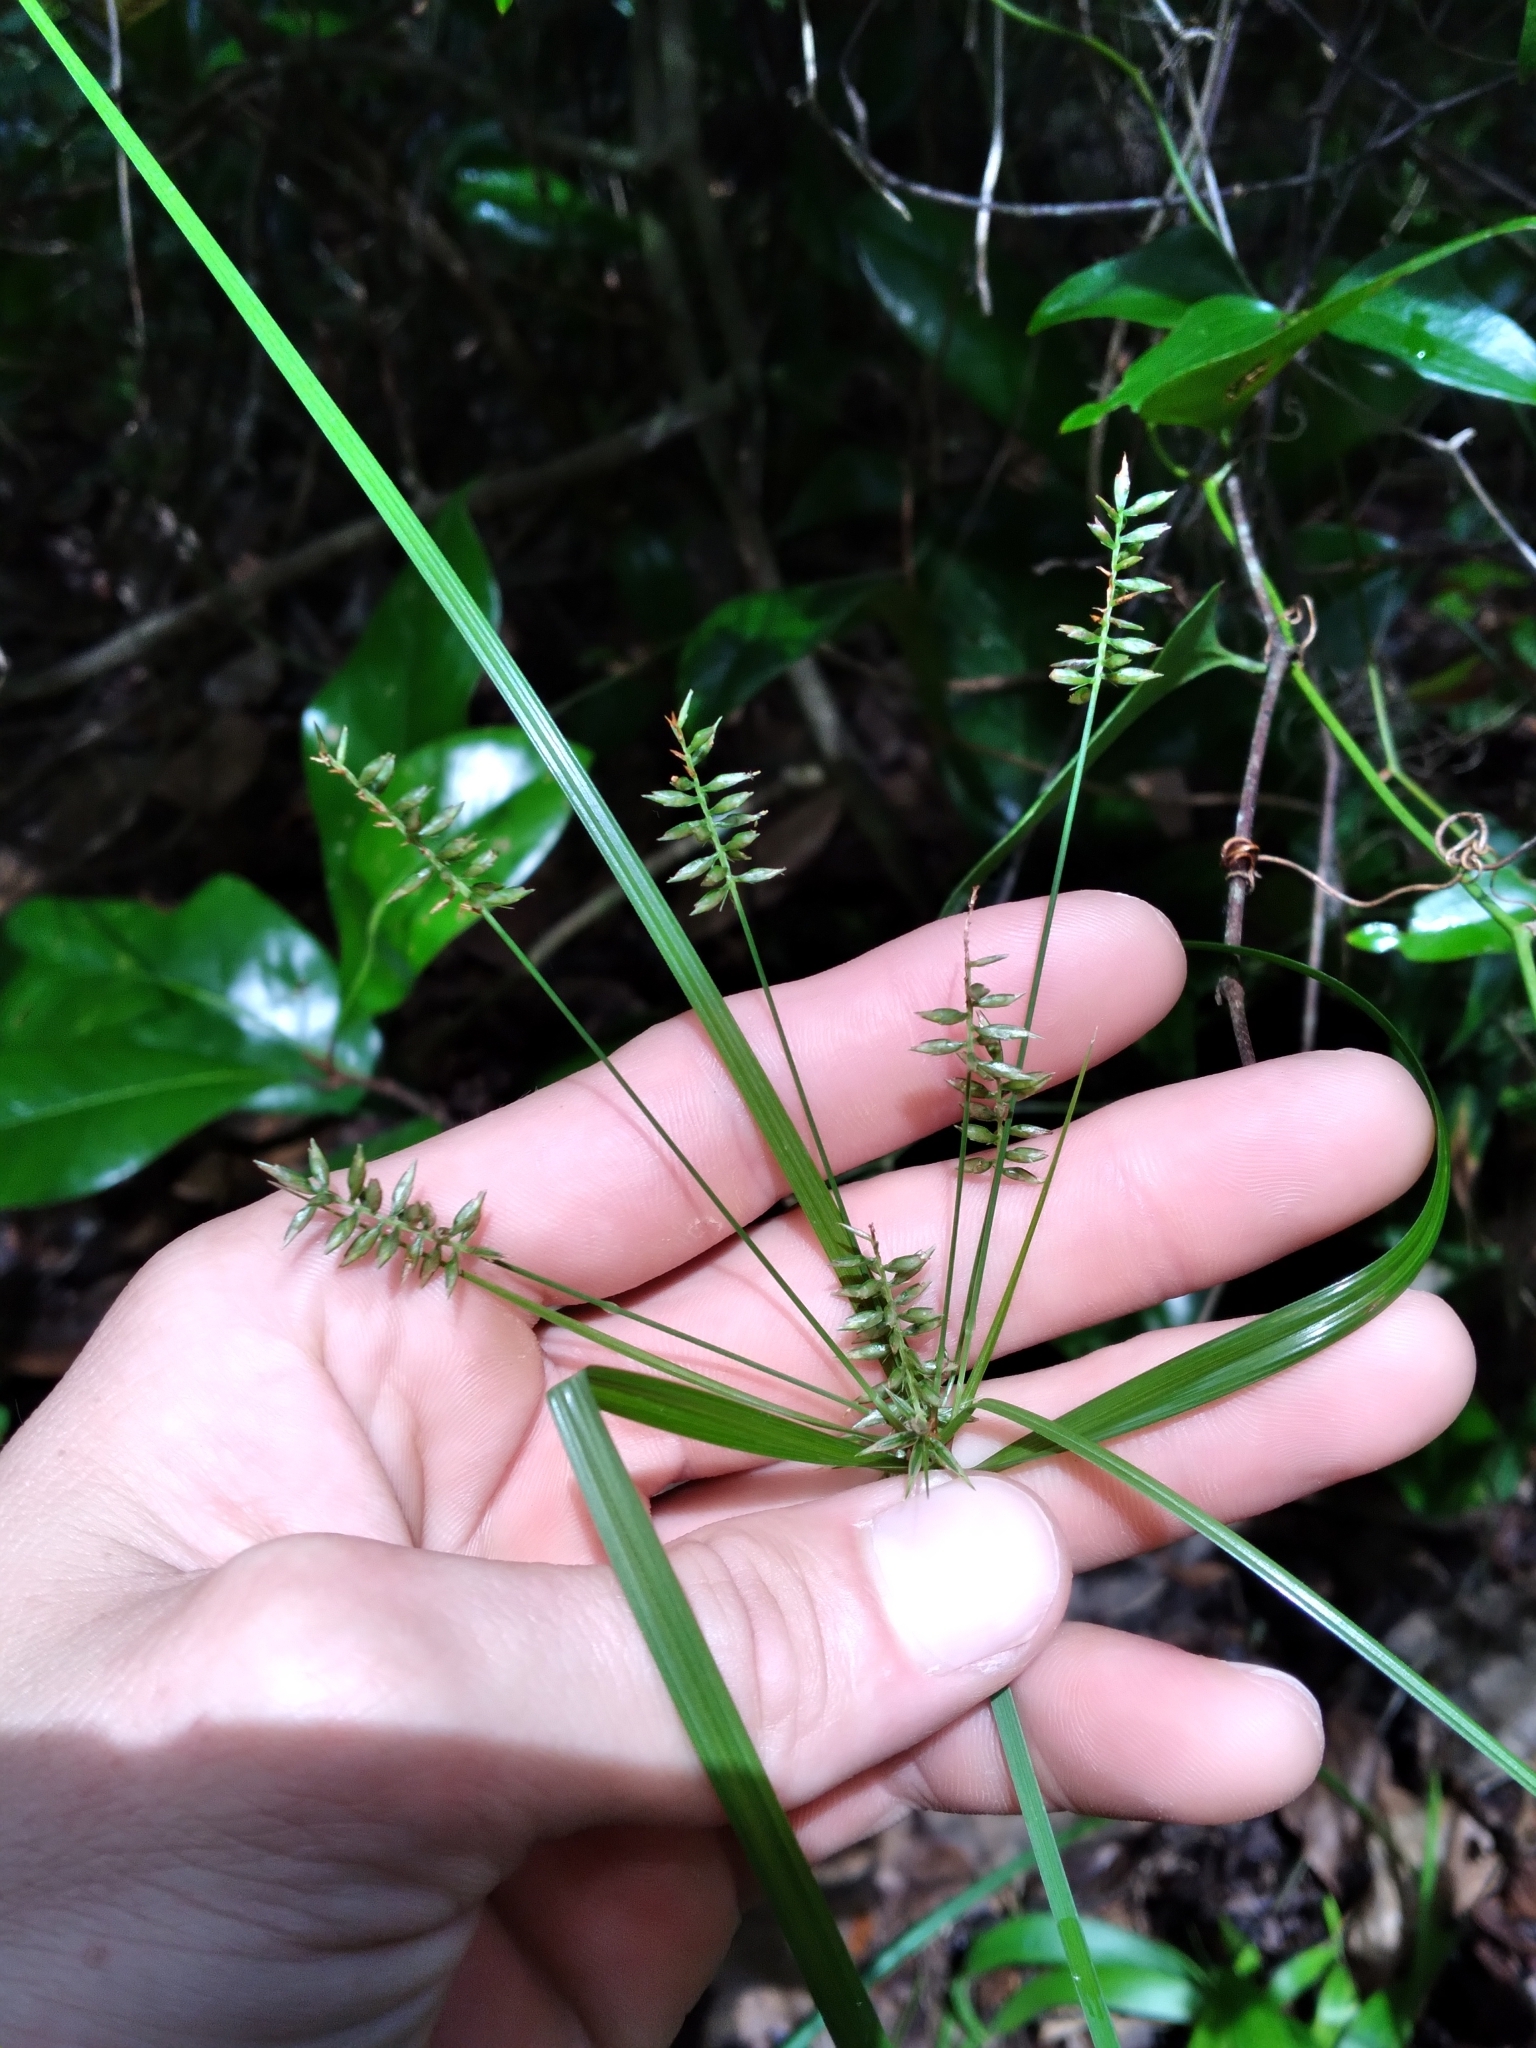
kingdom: Plantae
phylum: Tracheophyta
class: Liliopsida
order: Poales
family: Cyperaceae
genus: Cyperus
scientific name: Cyperus tetragonus
